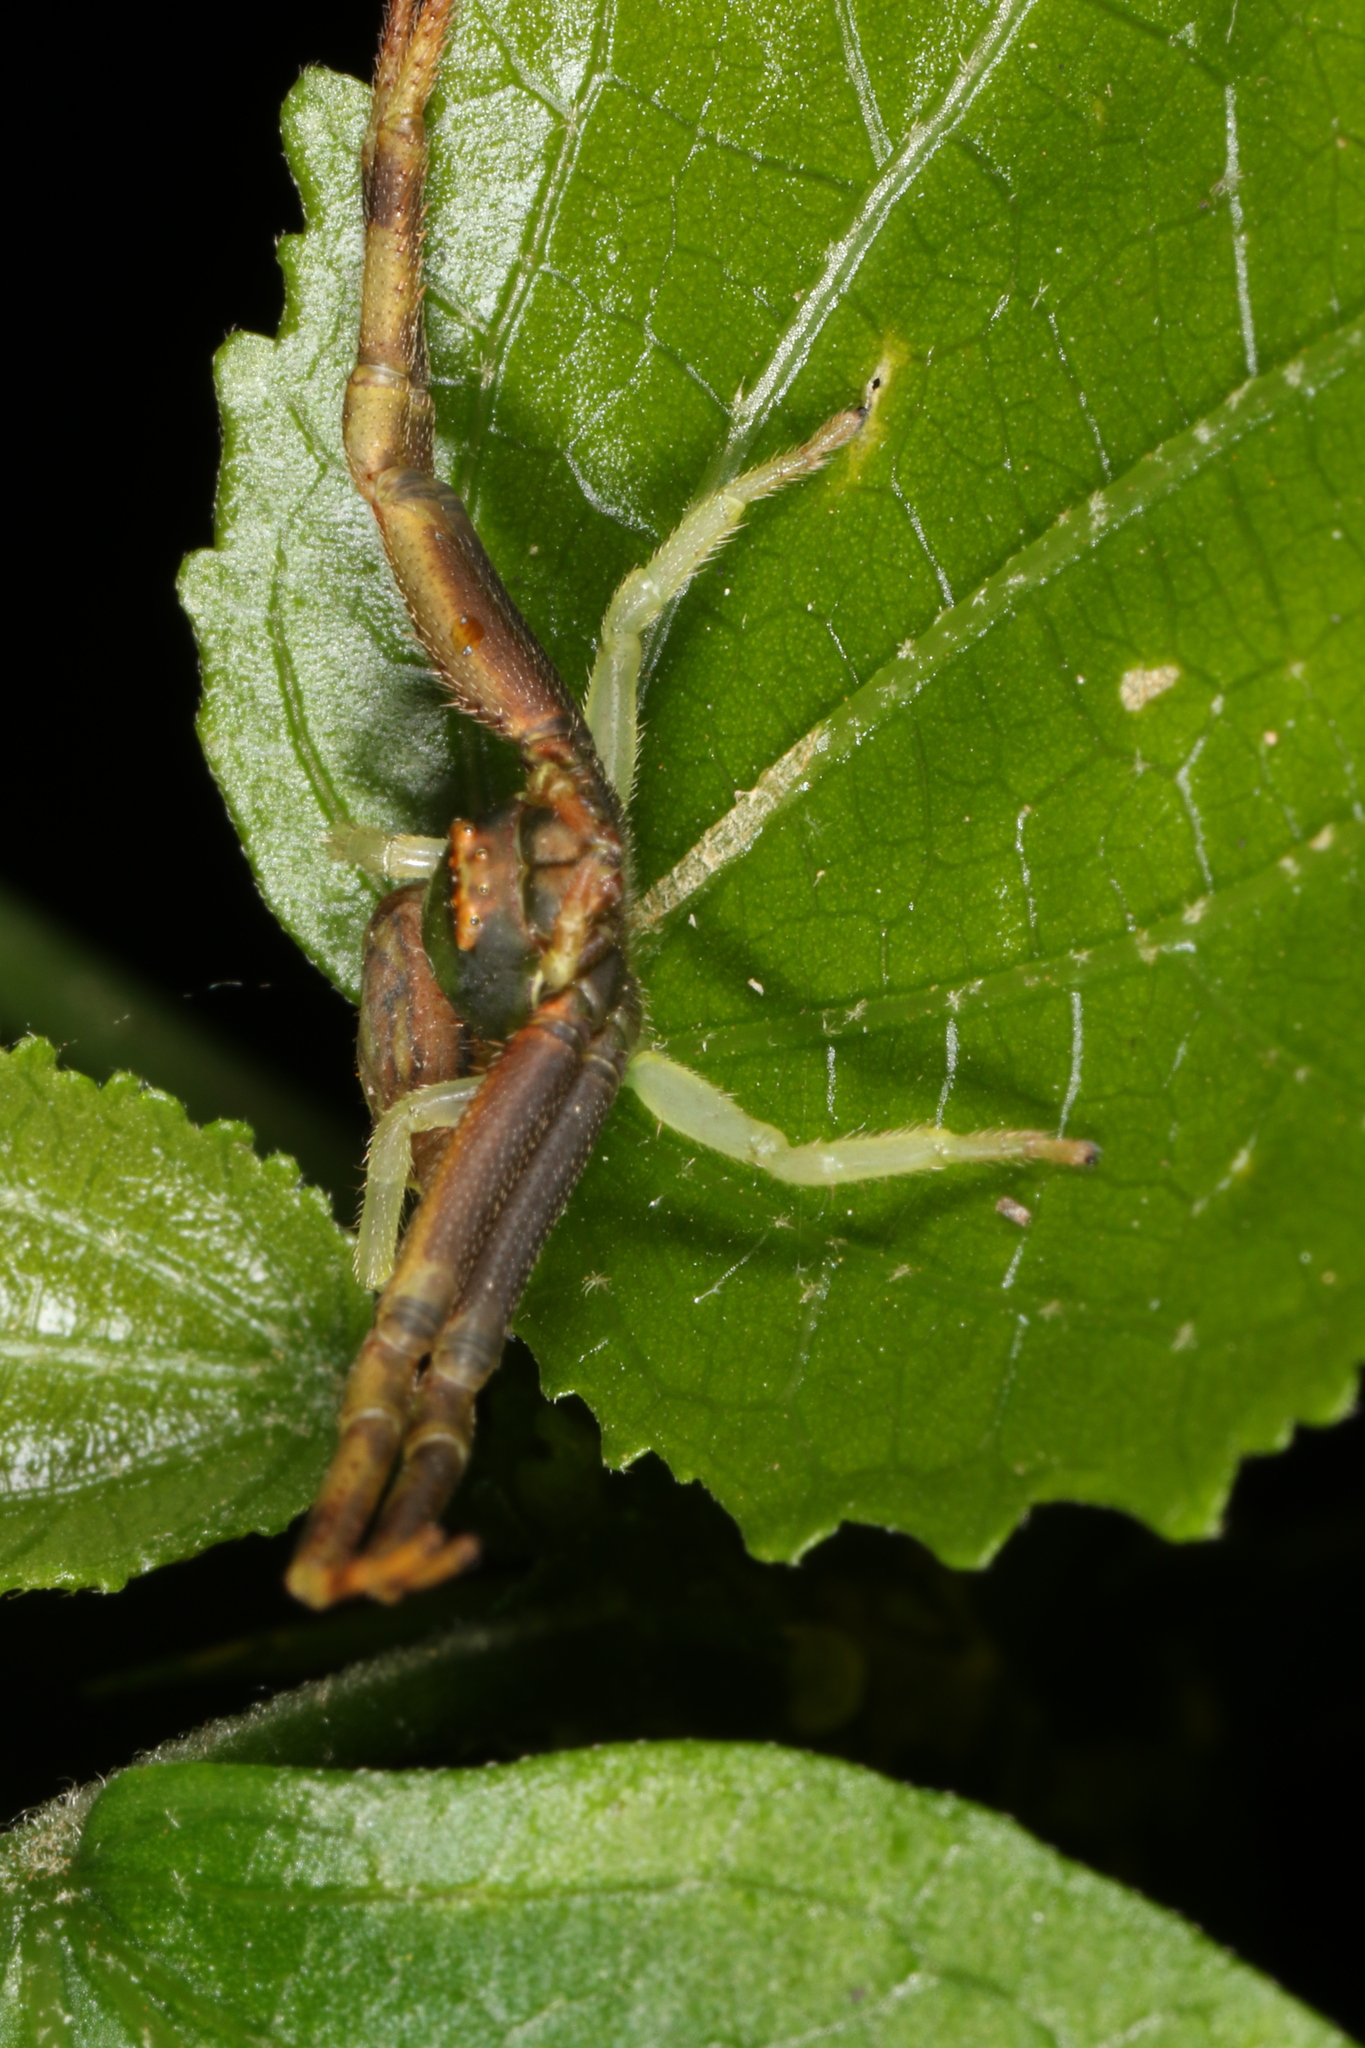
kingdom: Animalia
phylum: Arthropoda
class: Arachnida
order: Araneae
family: Thomisidae
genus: Runcinioides
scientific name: Runcinioides litteratus
